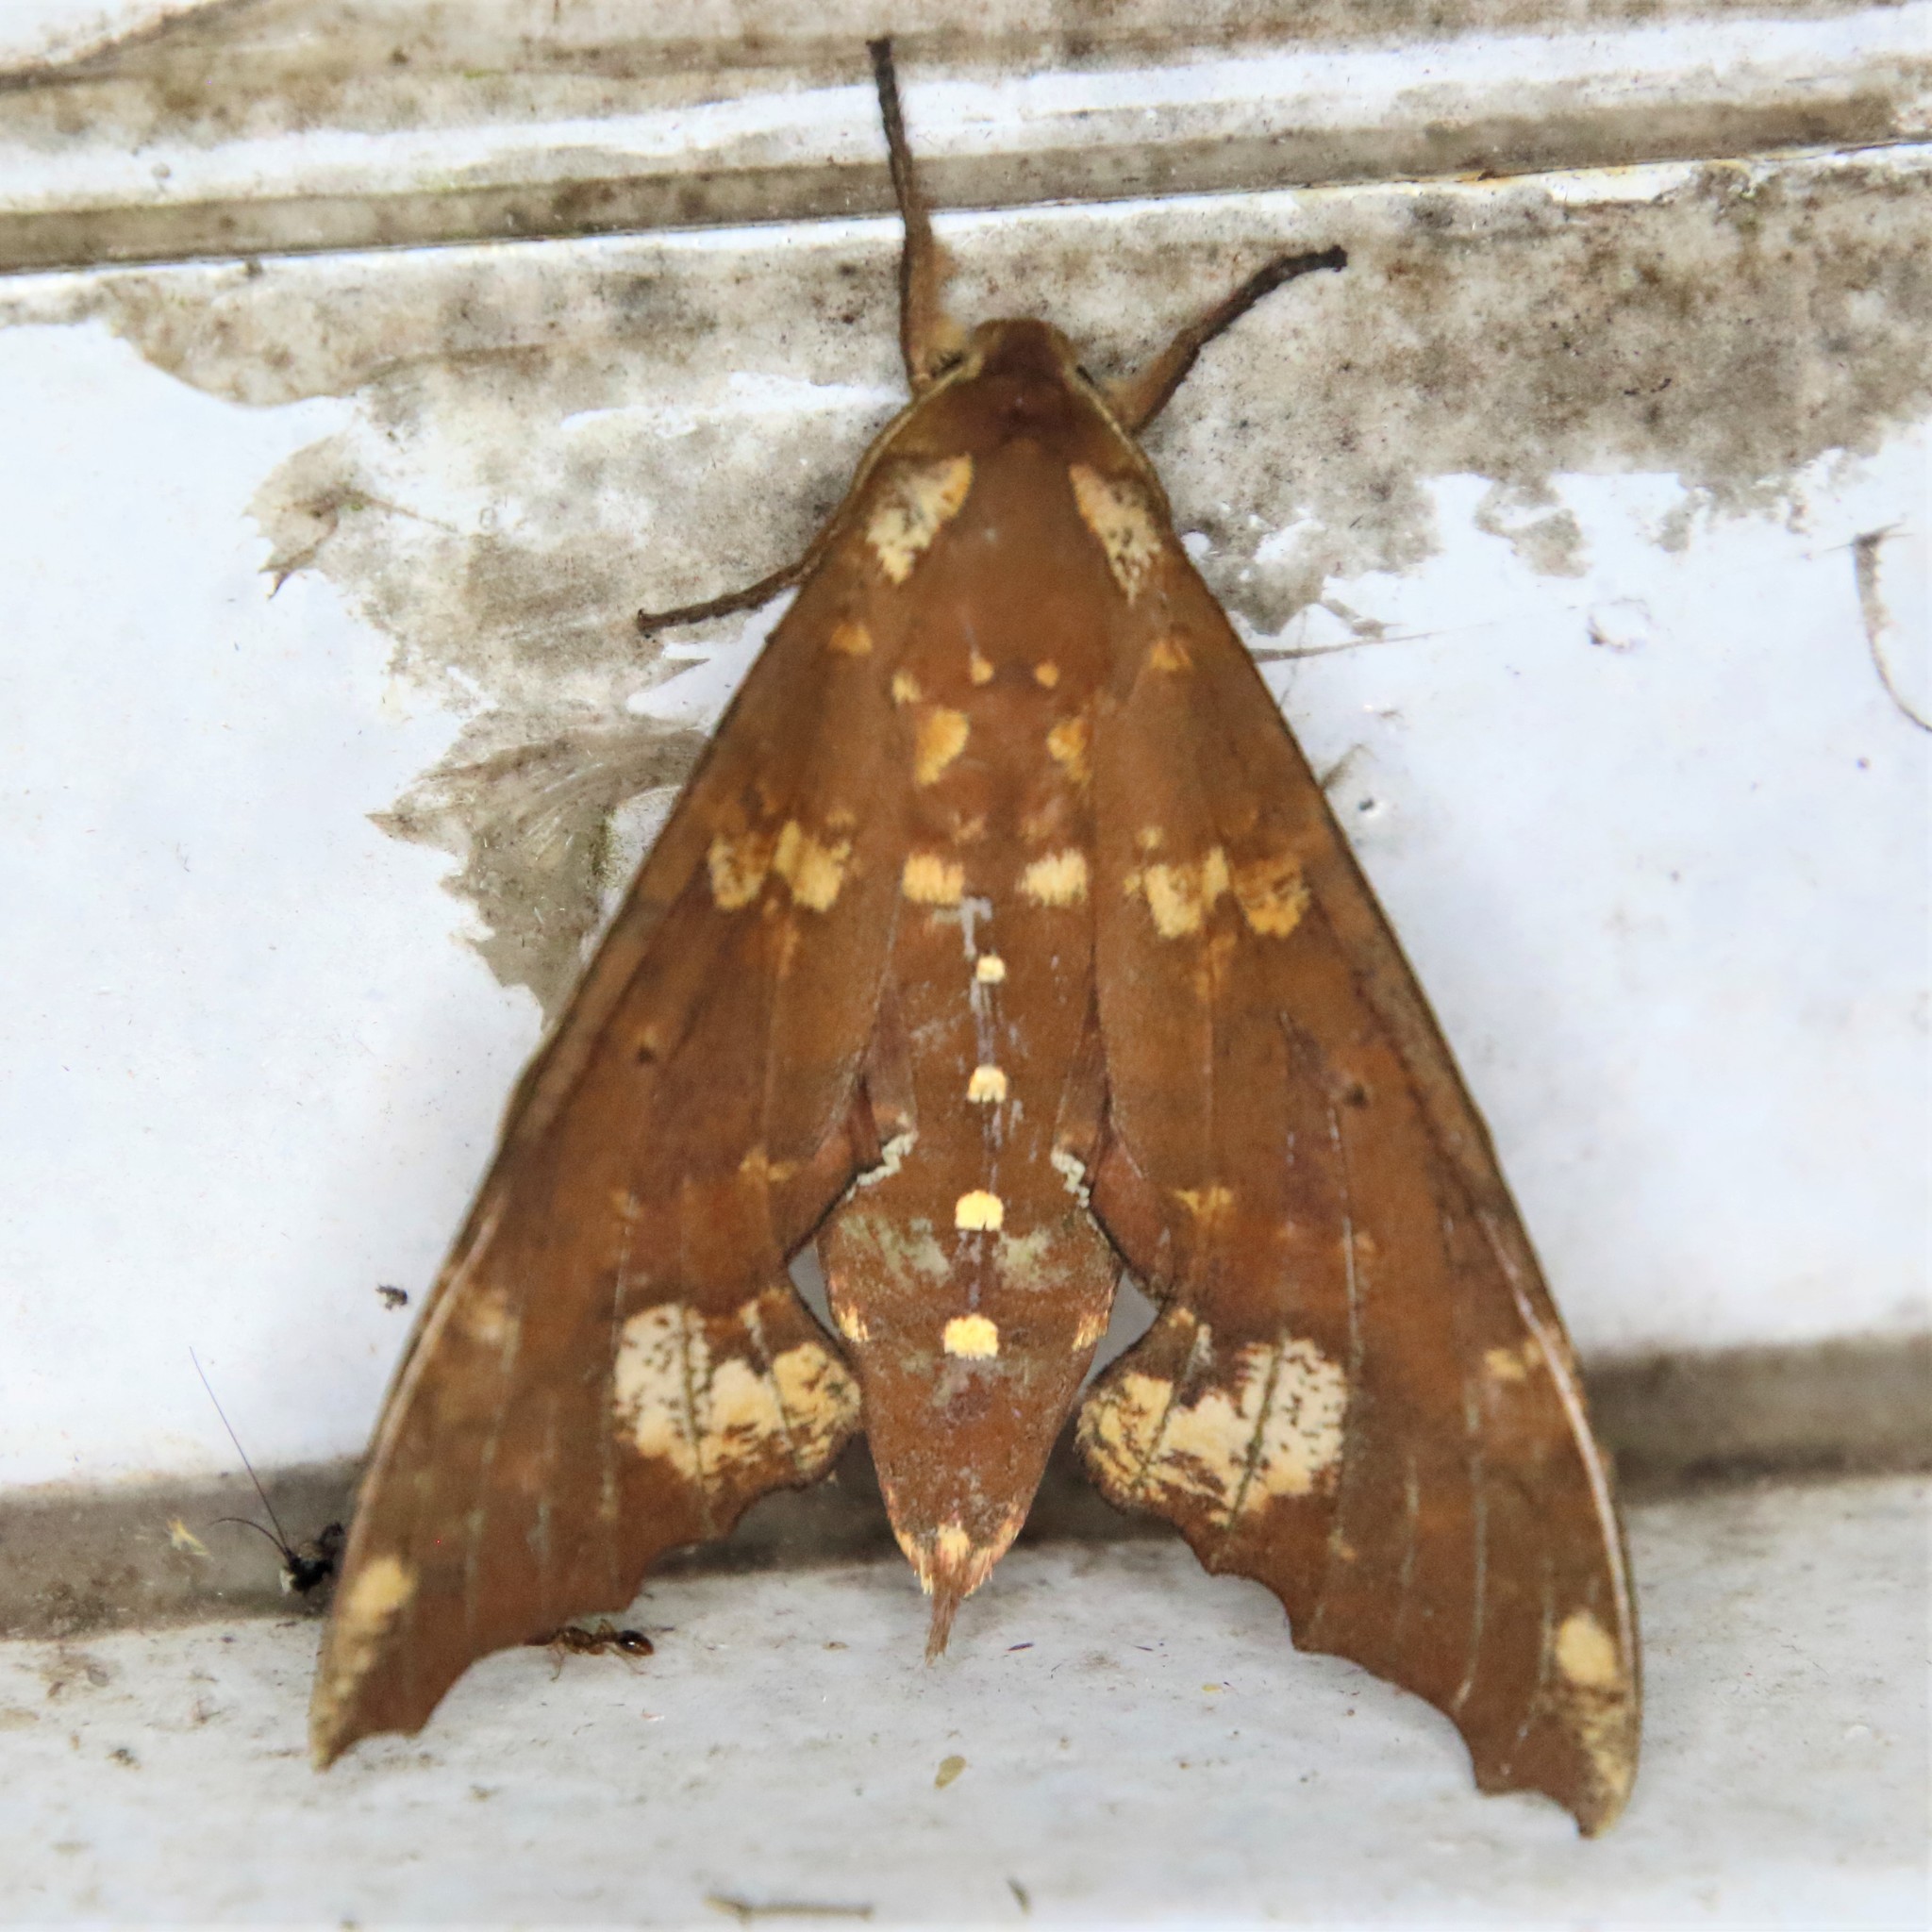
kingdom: Animalia
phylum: Arthropoda
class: Insecta
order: Lepidoptera
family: Sphingidae
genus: Smerinthulus
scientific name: Smerinthulus dohrni
